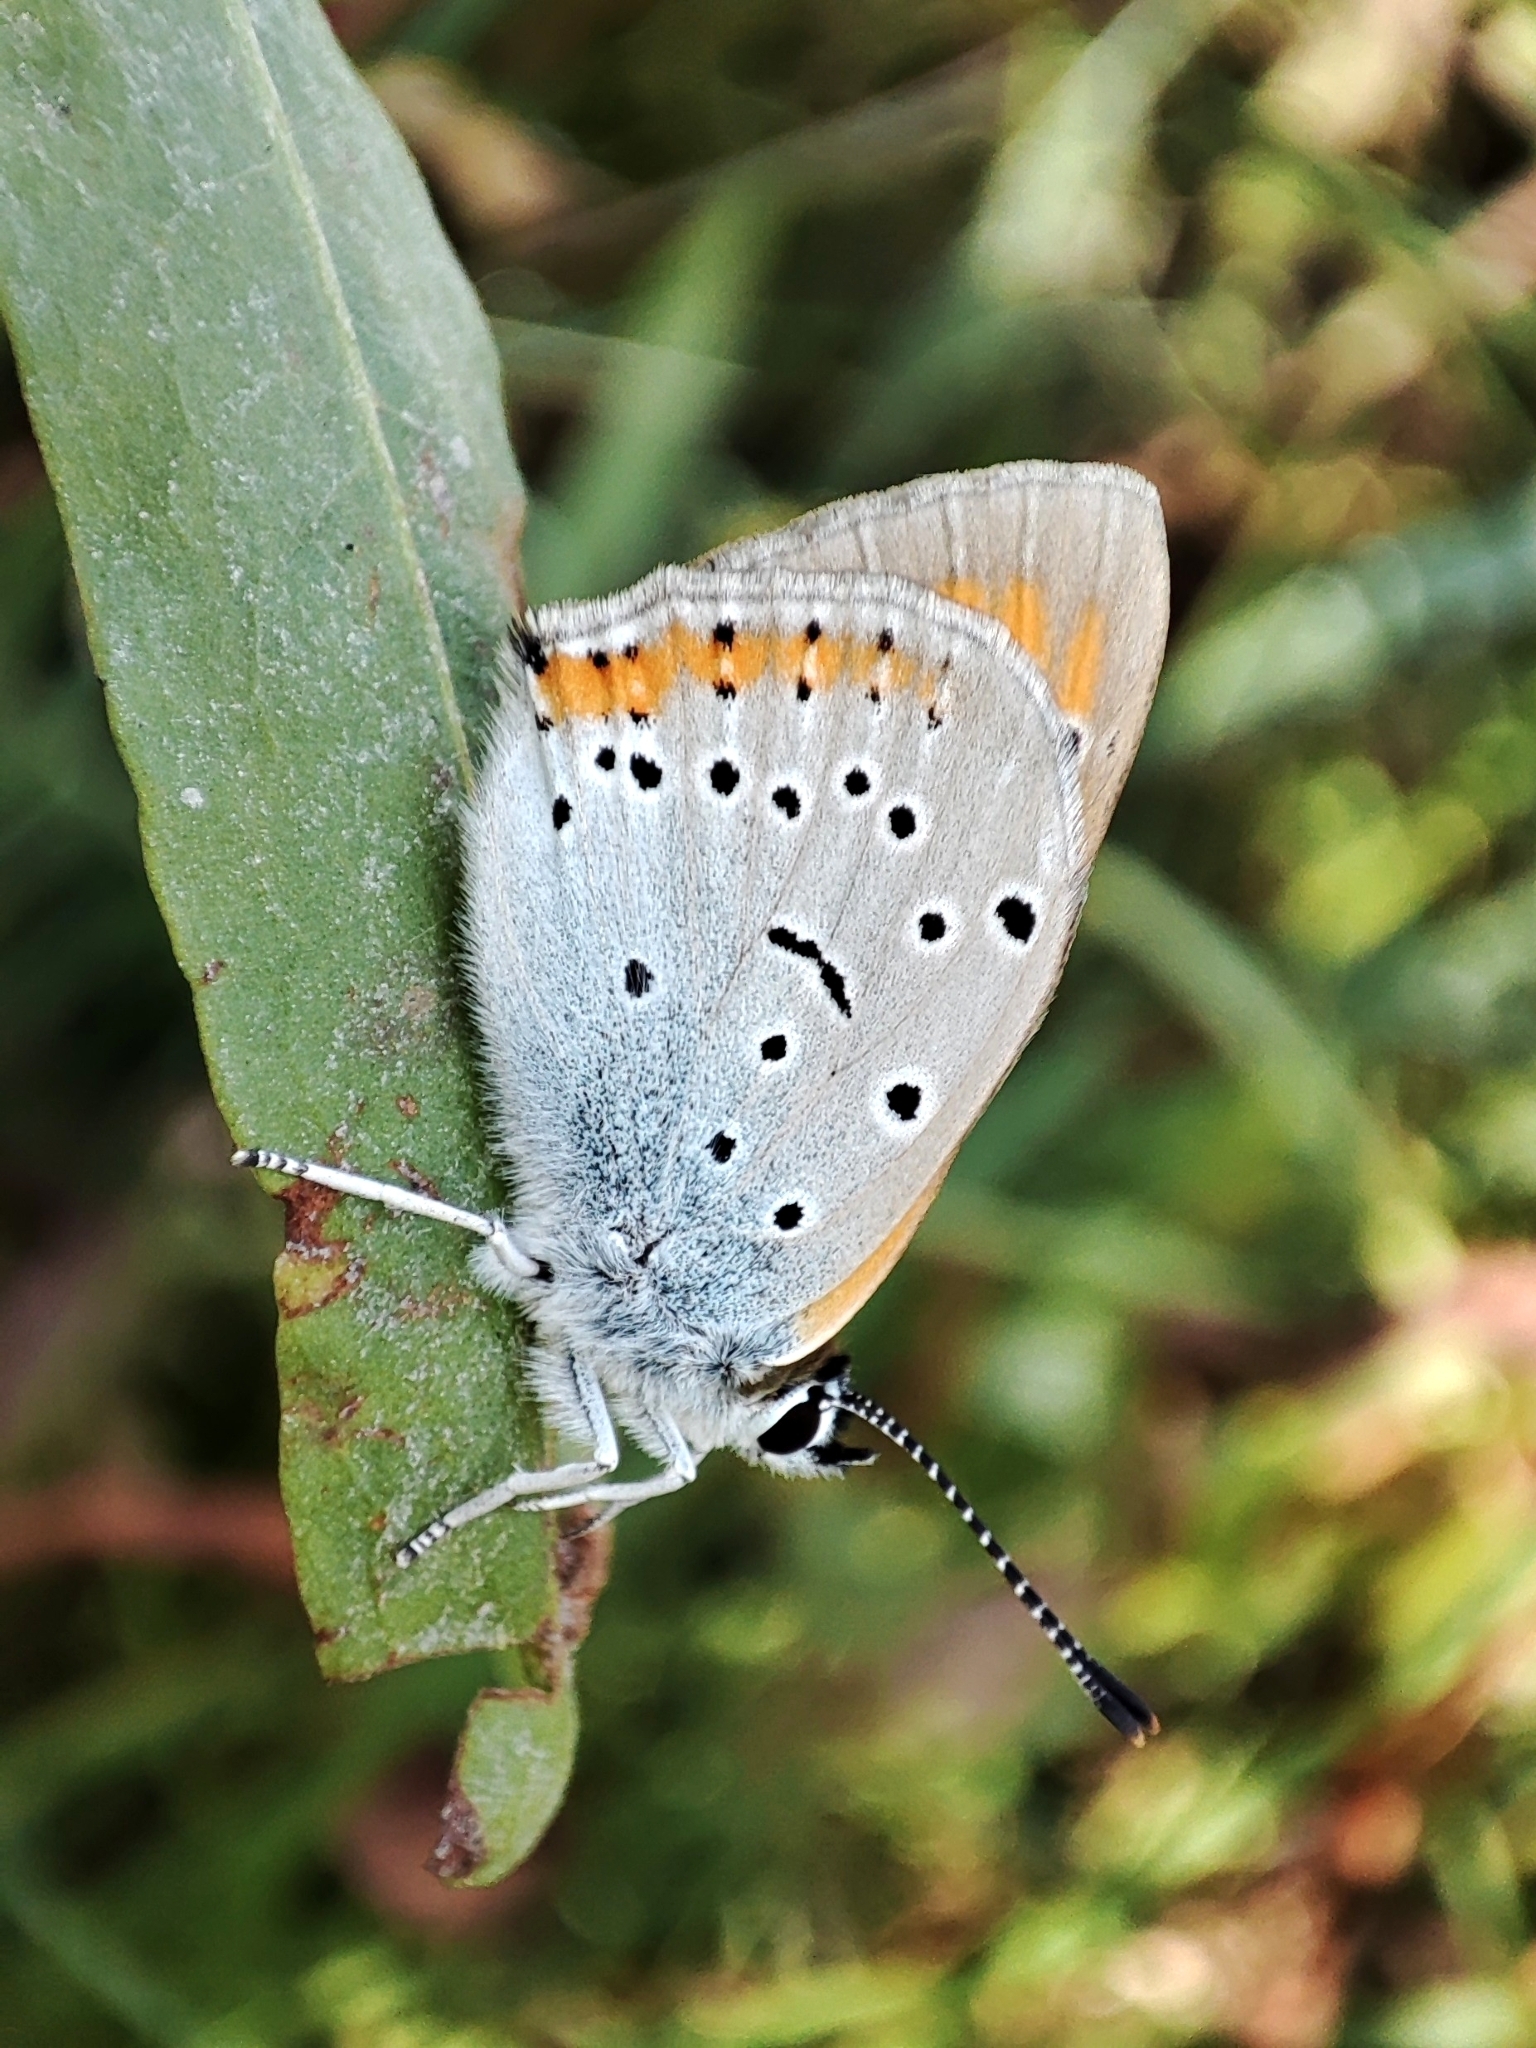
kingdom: Animalia
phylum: Arthropoda
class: Insecta
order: Lepidoptera
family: Lycaenidae
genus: Lycaena
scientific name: Lycaena dispar
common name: Large copper
